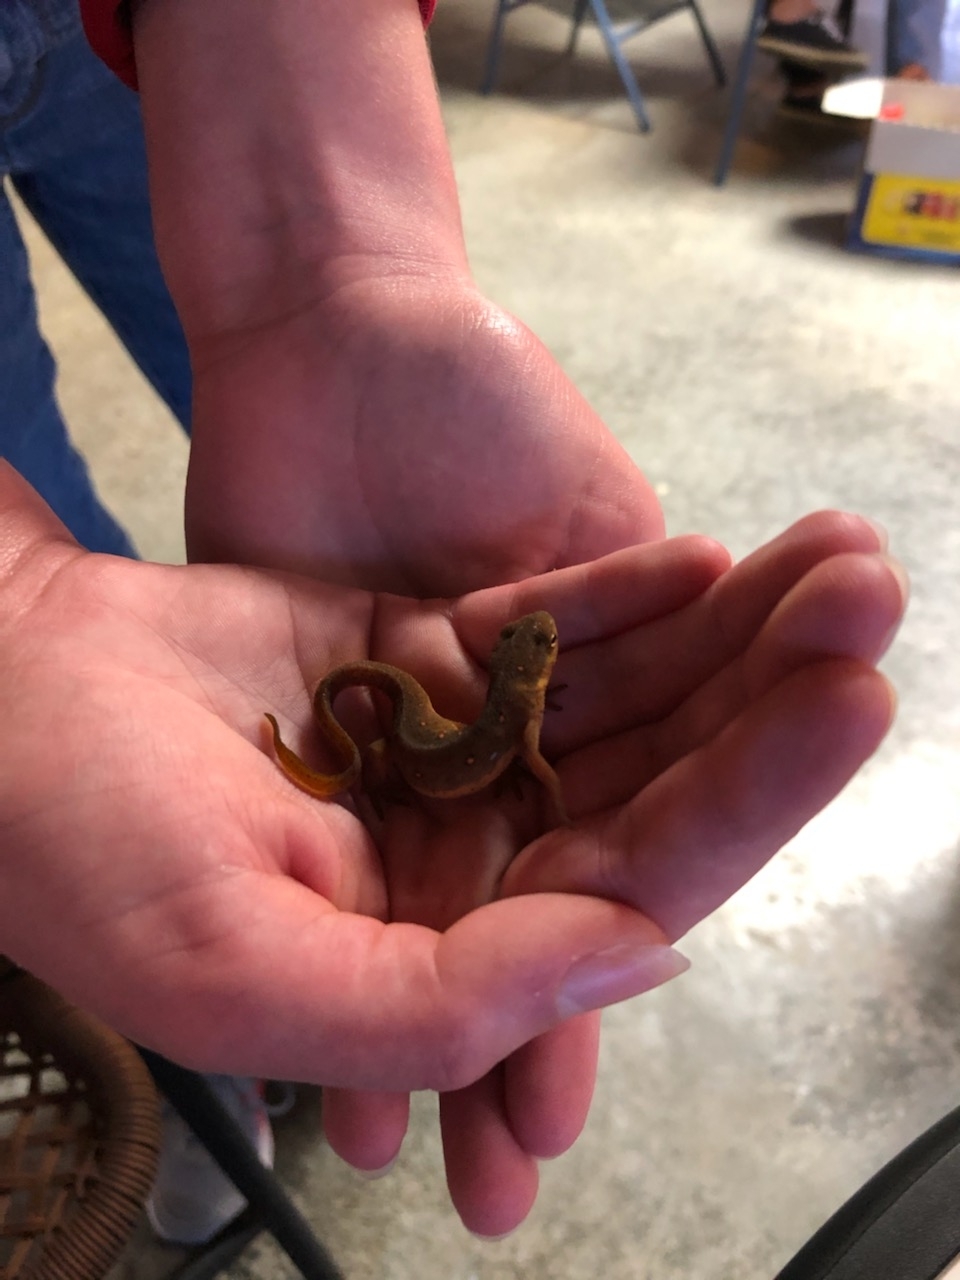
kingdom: Animalia
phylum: Chordata
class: Amphibia
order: Caudata
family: Salamandridae
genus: Notophthalmus
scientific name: Notophthalmus viridescens
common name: Eastern newt
